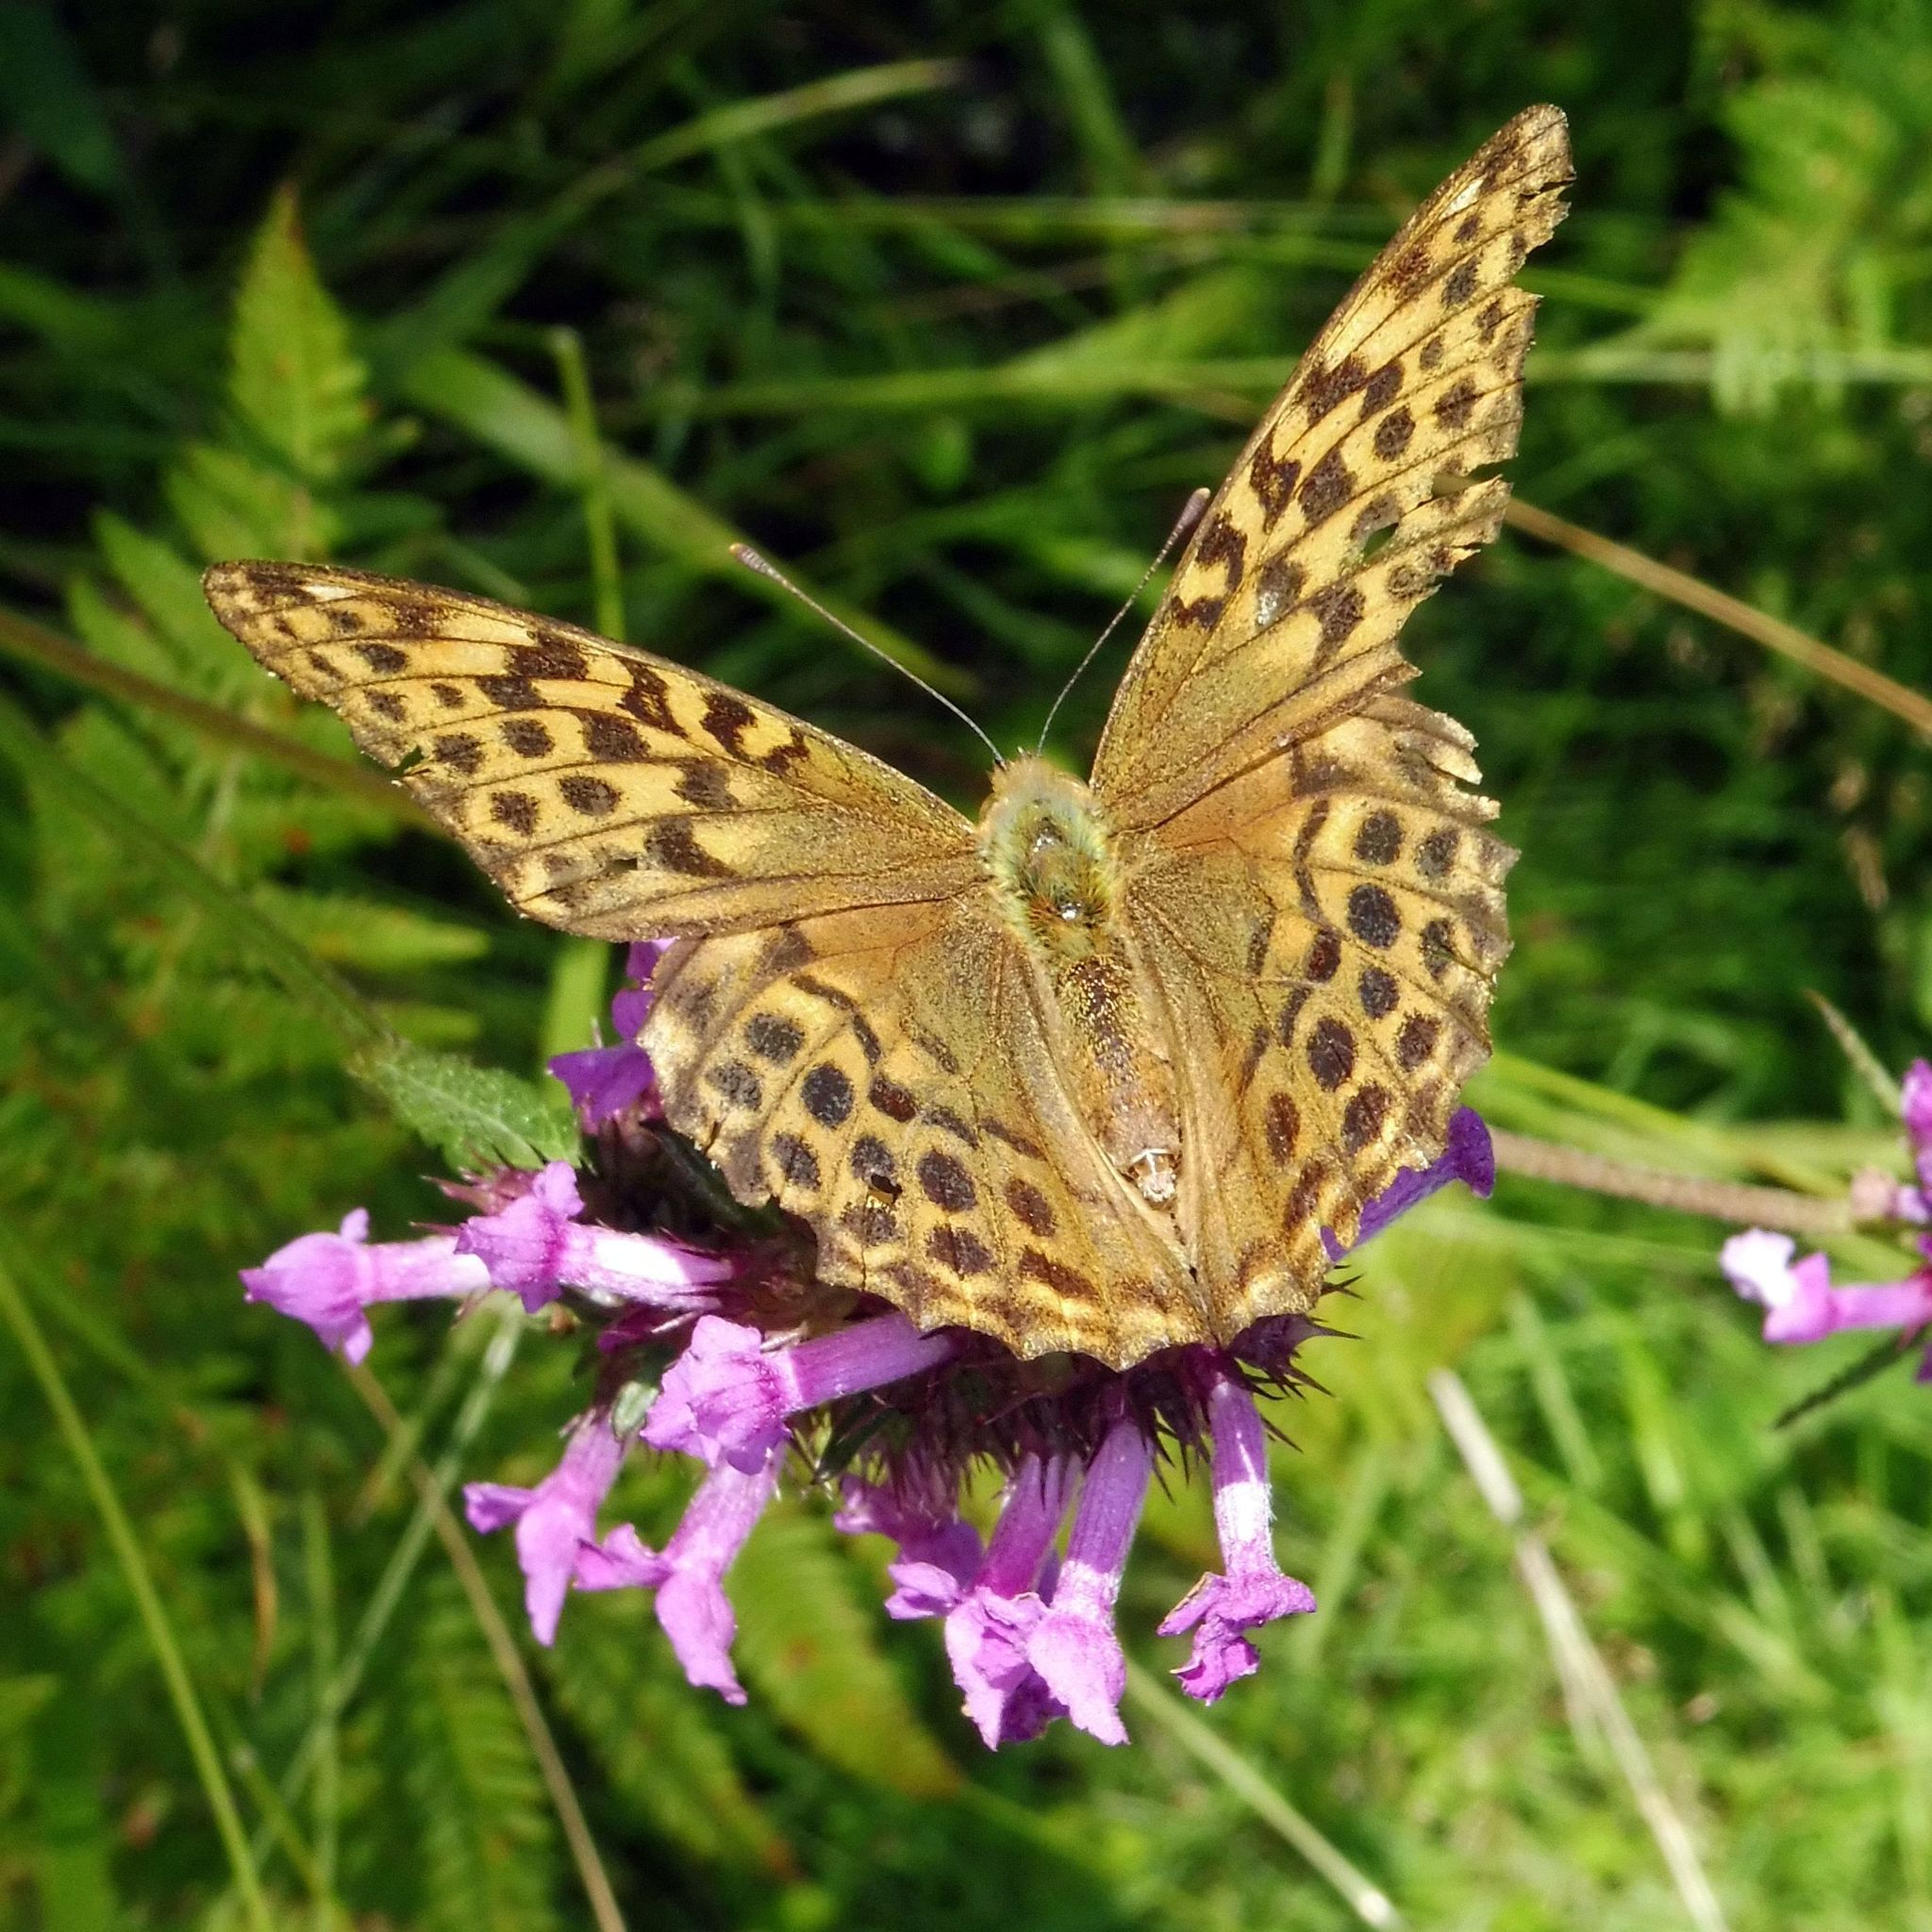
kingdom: Animalia
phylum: Arthropoda
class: Insecta
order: Lepidoptera
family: Nymphalidae
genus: Argynnis
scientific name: Argynnis paphia
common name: Silver-washed fritillary
